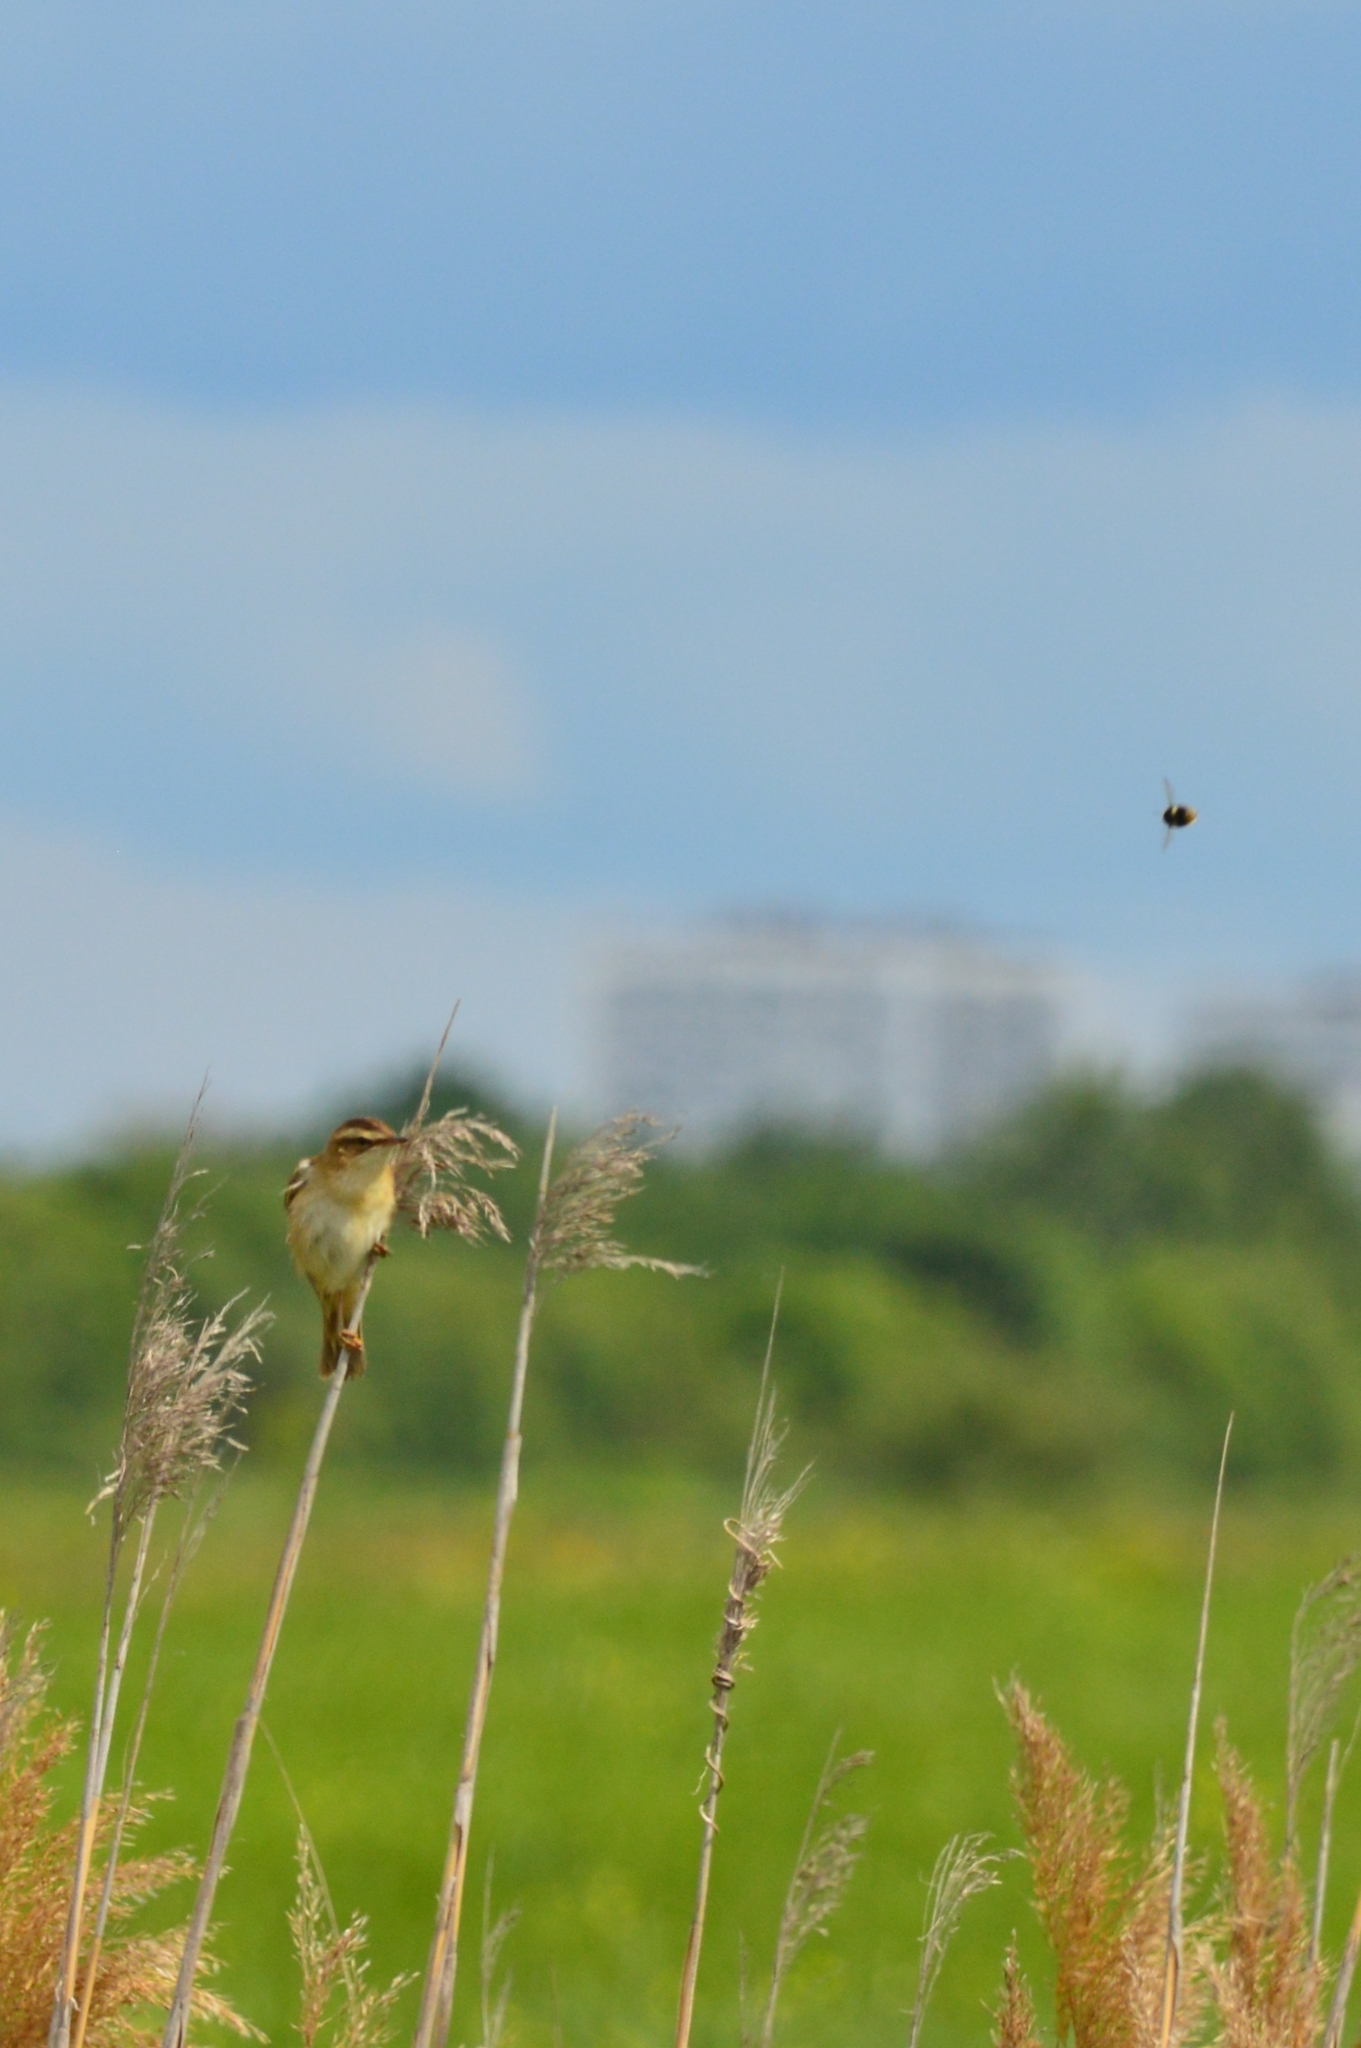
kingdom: Animalia
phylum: Chordata
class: Aves
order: Passeriformes
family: Acrocephalidae
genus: Acrocephalus
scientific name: Acrocephalus schoenobaenus
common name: Sedge warbler
